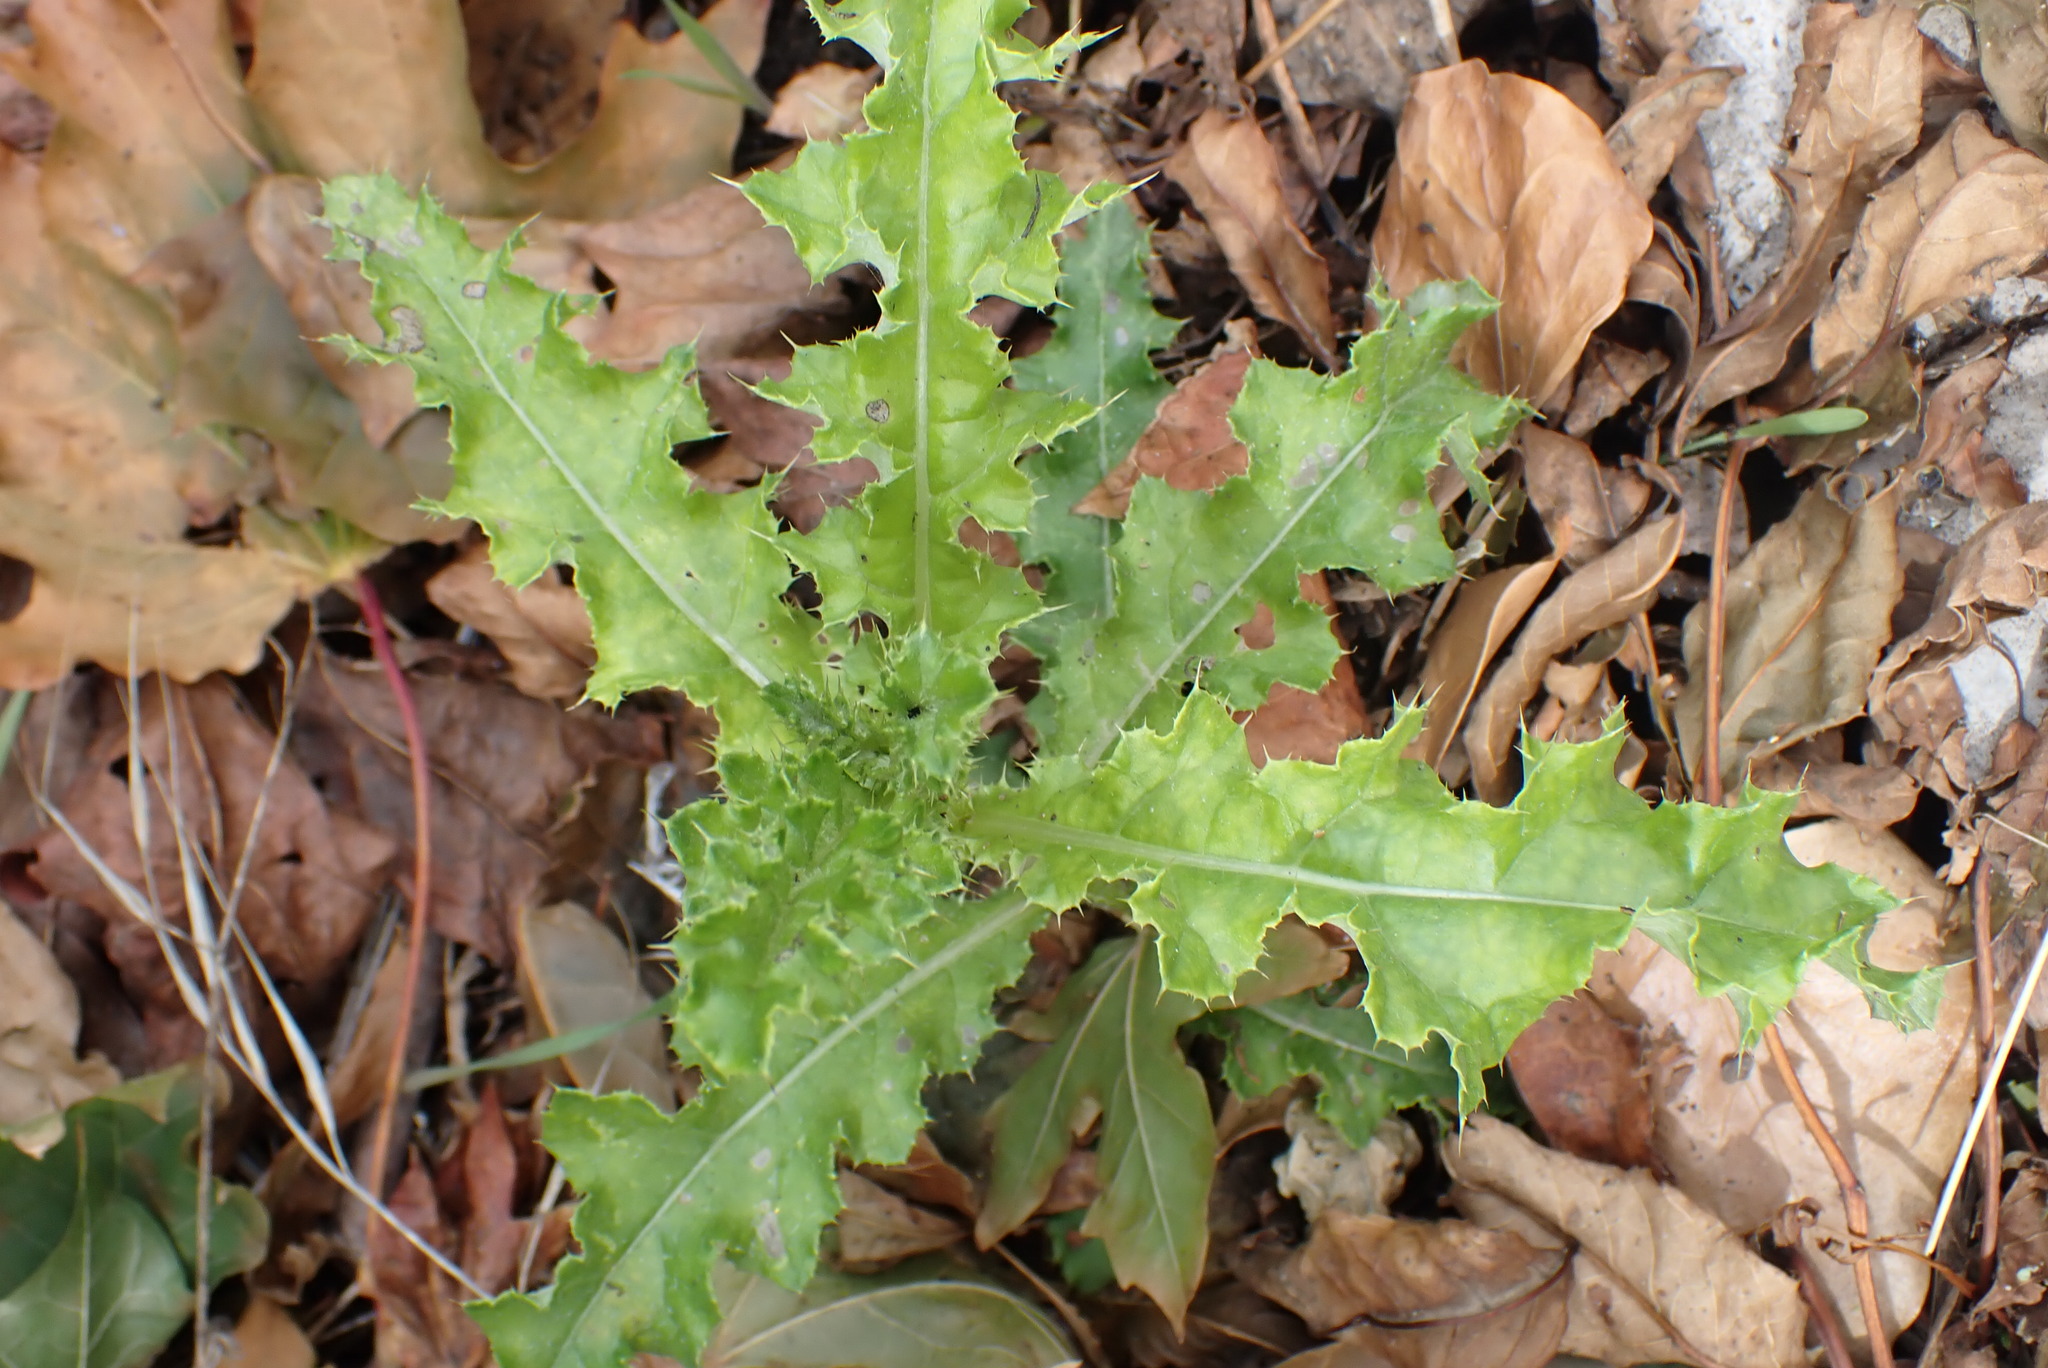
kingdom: Plantae
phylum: Tracheophyta
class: Magnoliopsida
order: Asterales
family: Asteraceae
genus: Cirsium
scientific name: Cirsium arvense
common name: Creeping thistle
